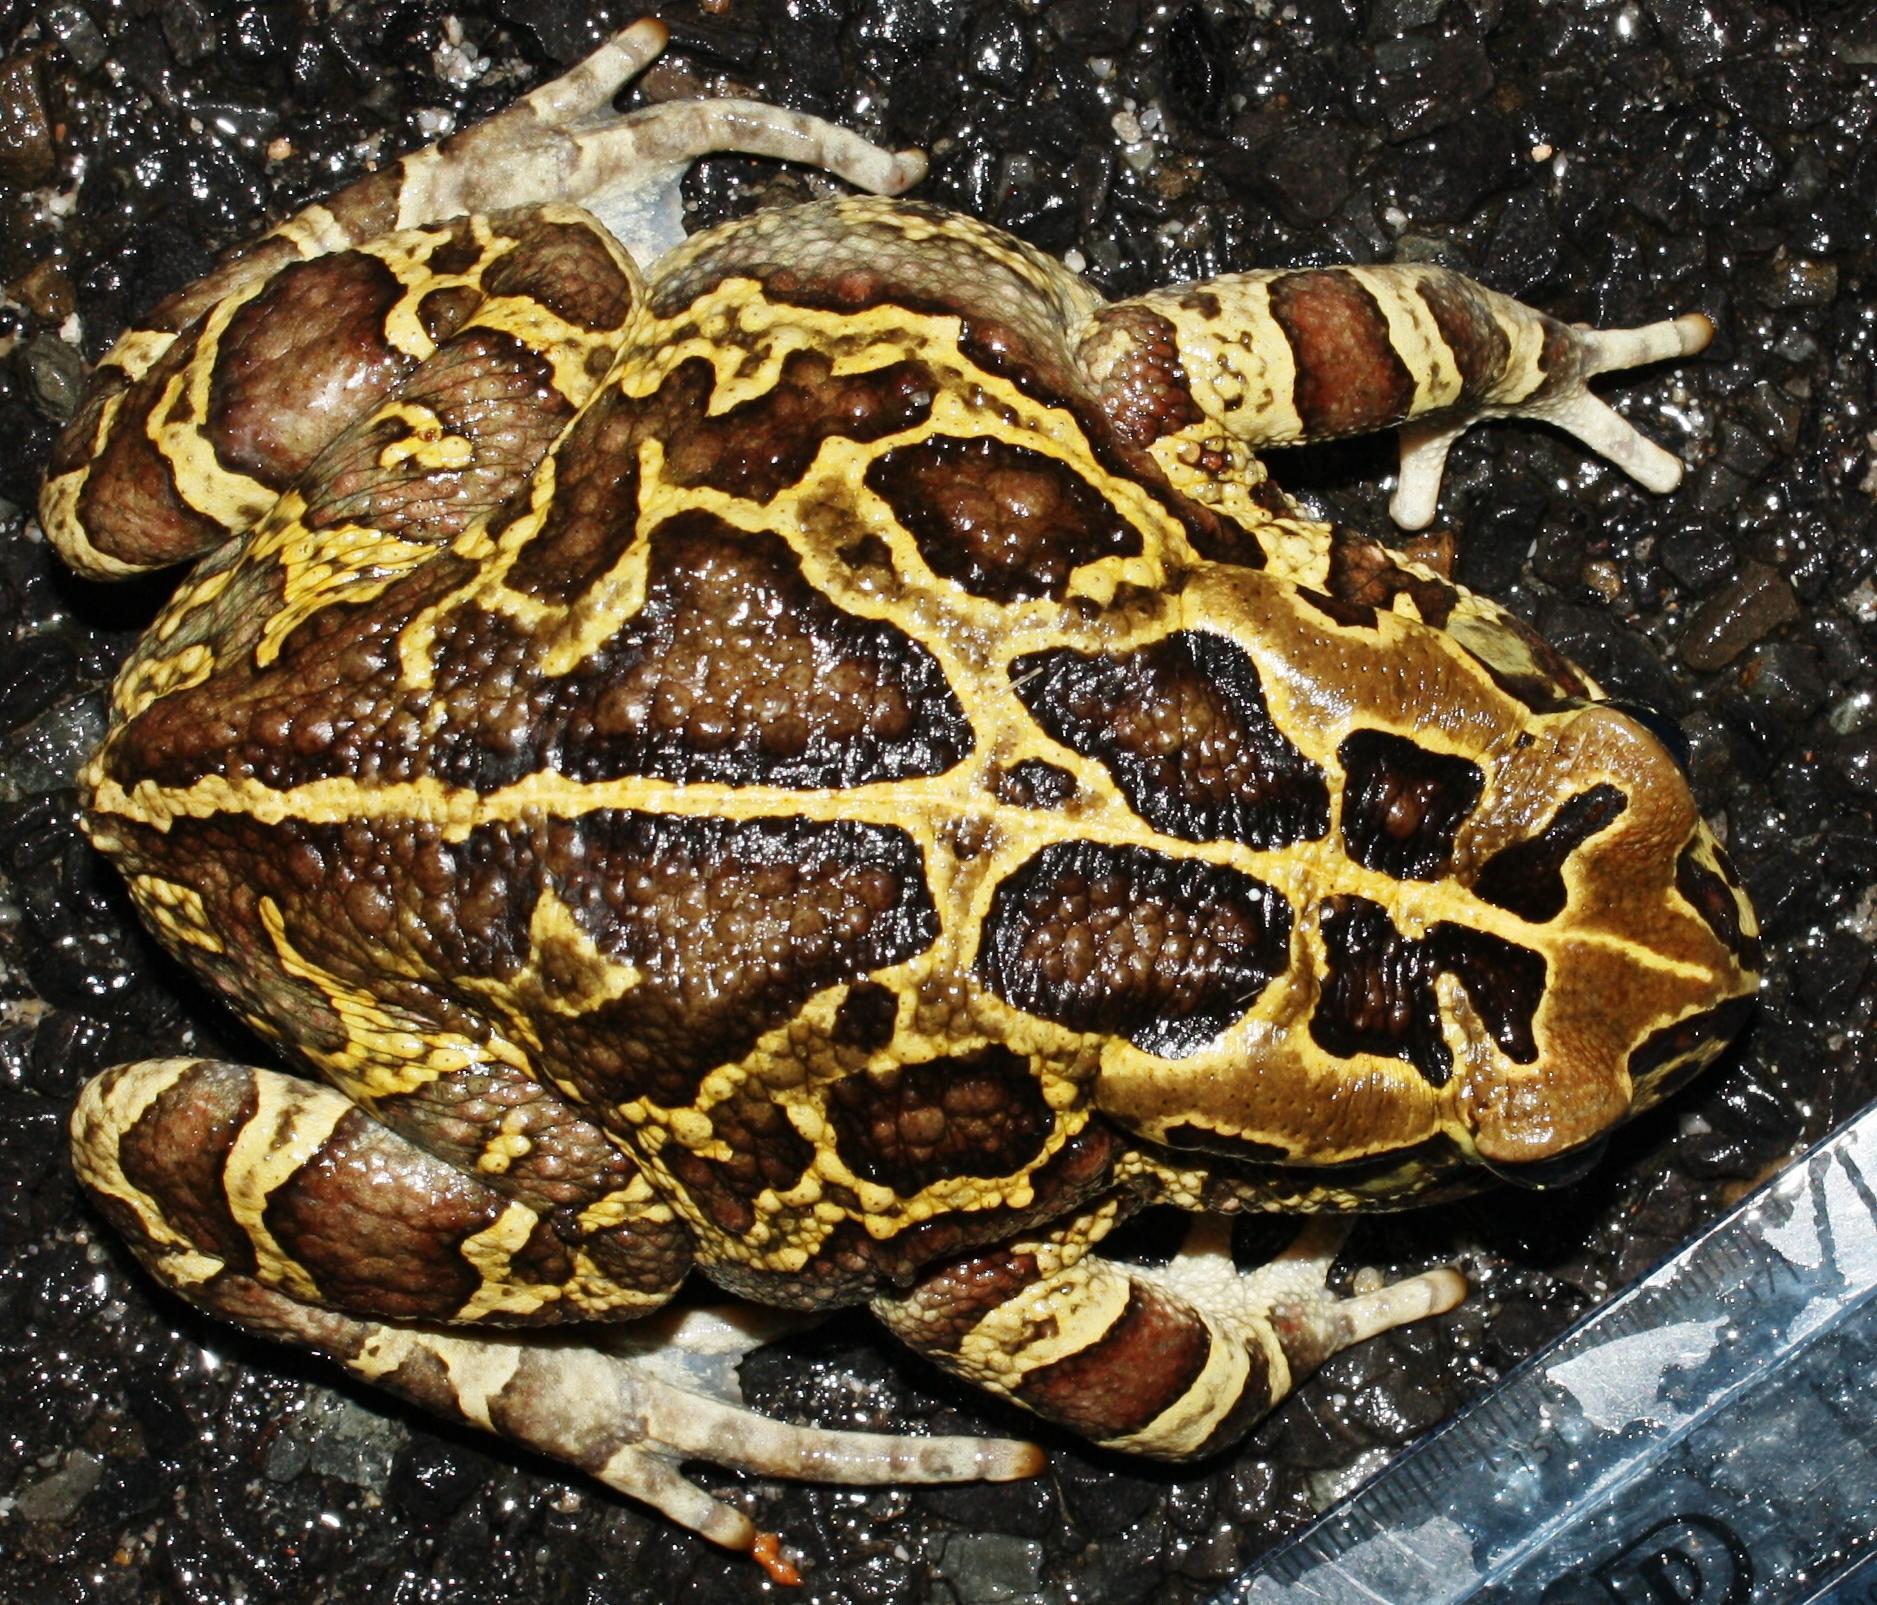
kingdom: Animalia
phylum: Chordata
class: Amphibia
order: Anura
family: Bufonidae
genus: Sclerophrys
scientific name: Sclerophrys pantherina
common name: Panther toad
